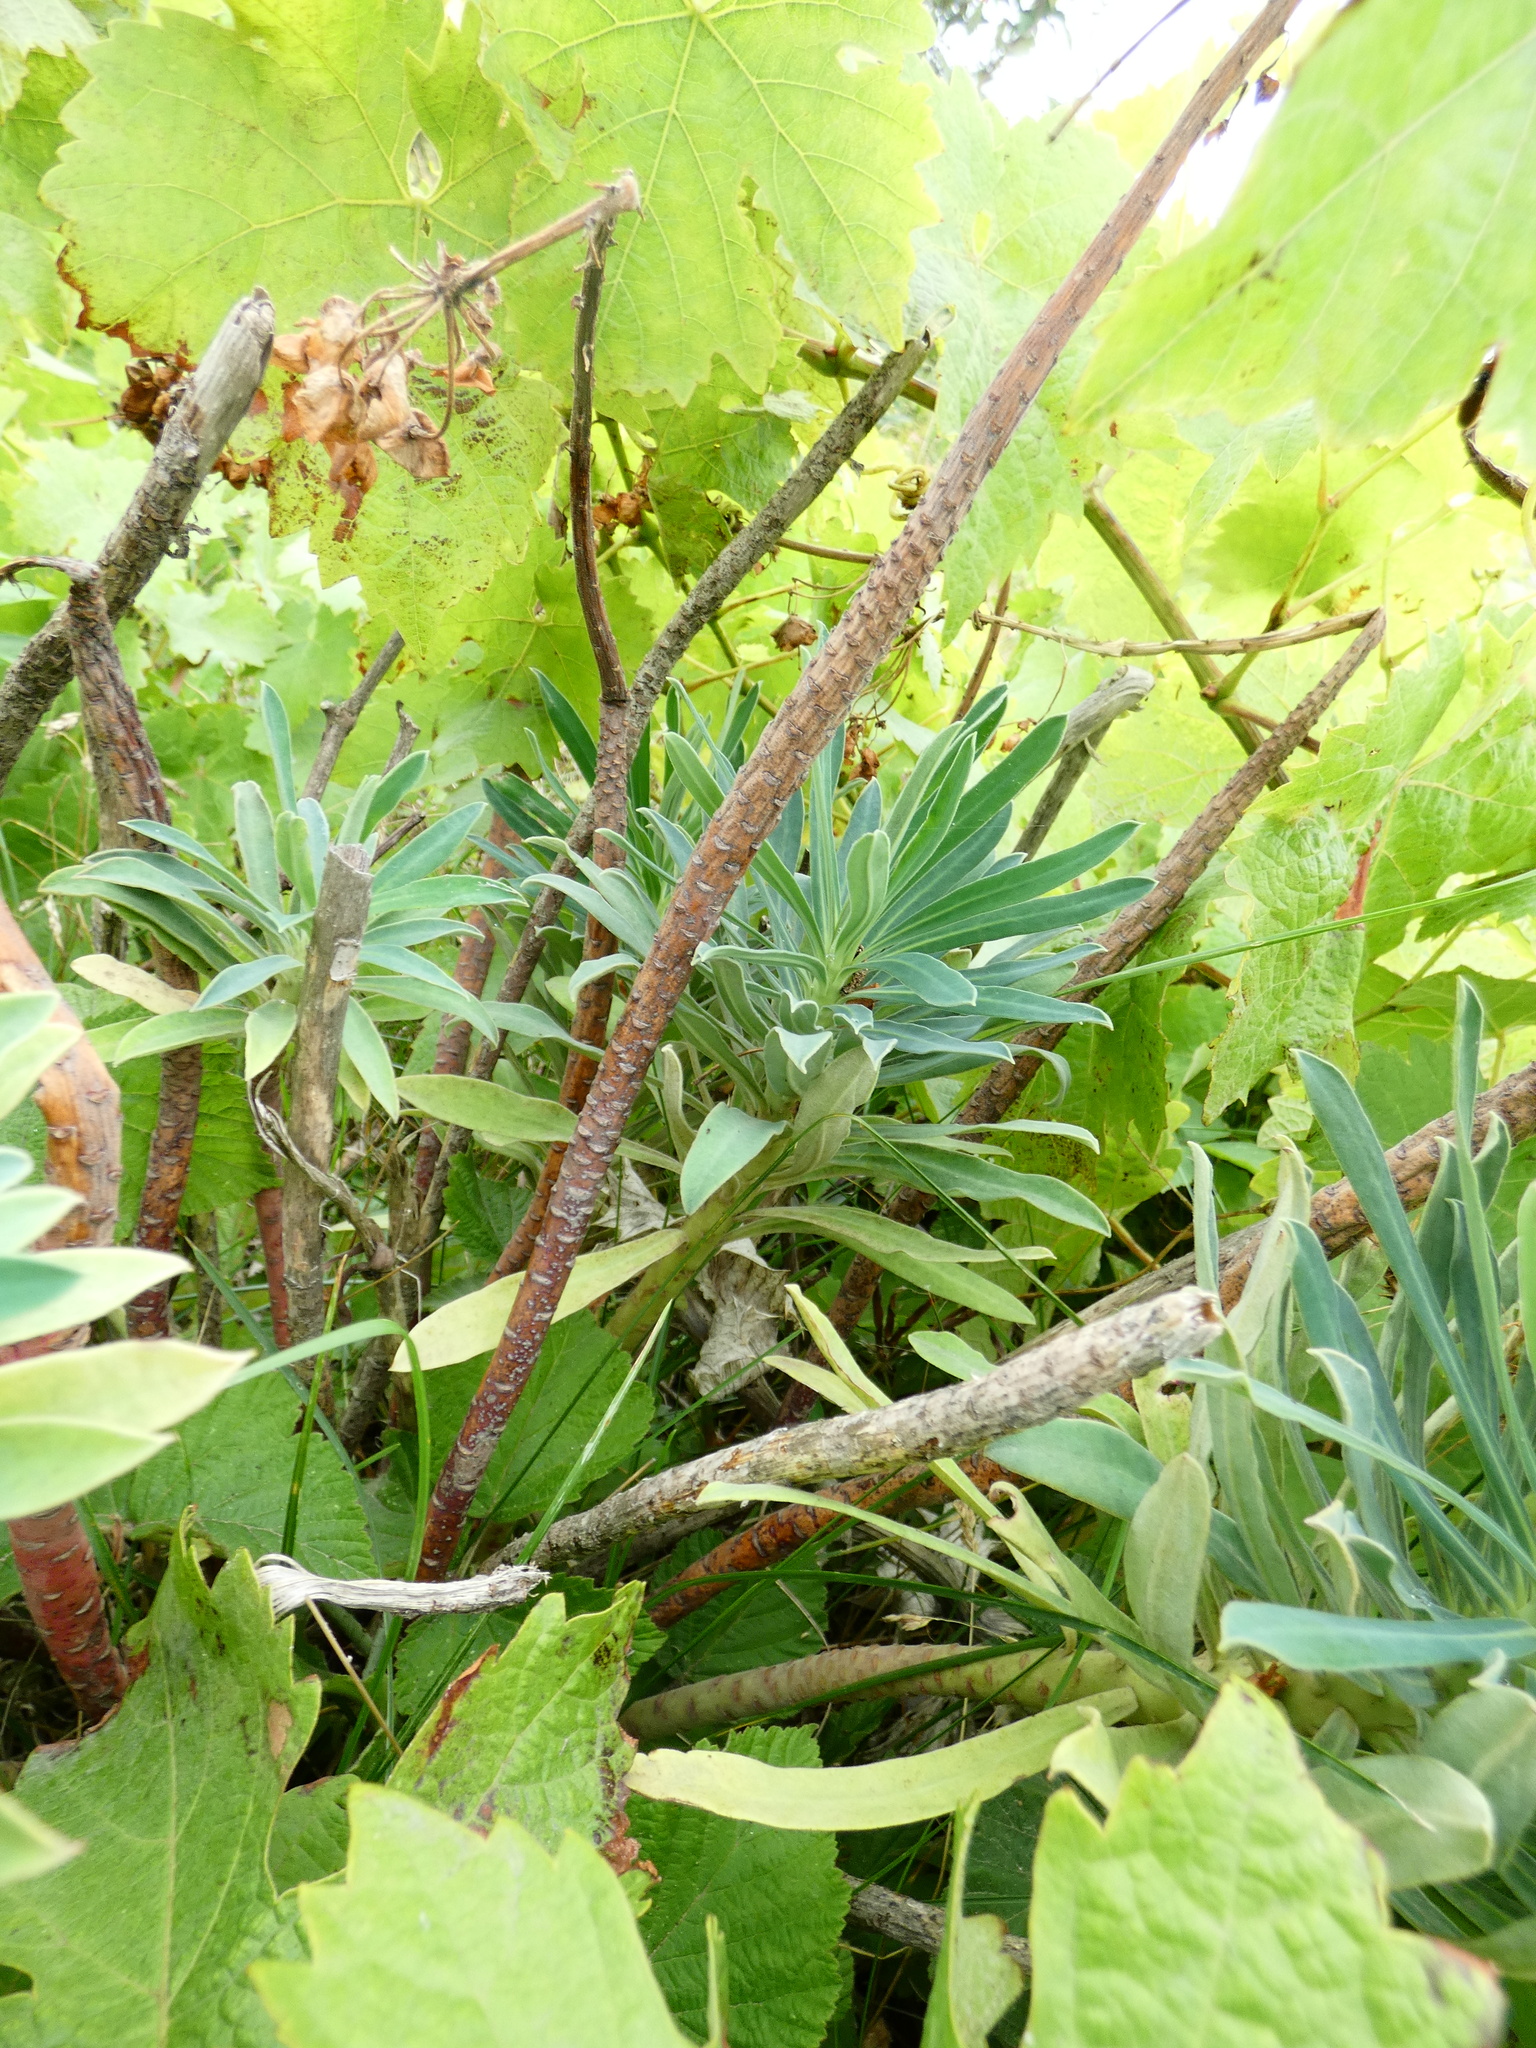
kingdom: Plantae
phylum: Tracheophyta
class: Magnoliopsida
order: Malpighiales
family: Euphorbiaceae
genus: Euphorbia
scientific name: Euphorbia characias
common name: Mediterranean spurge
